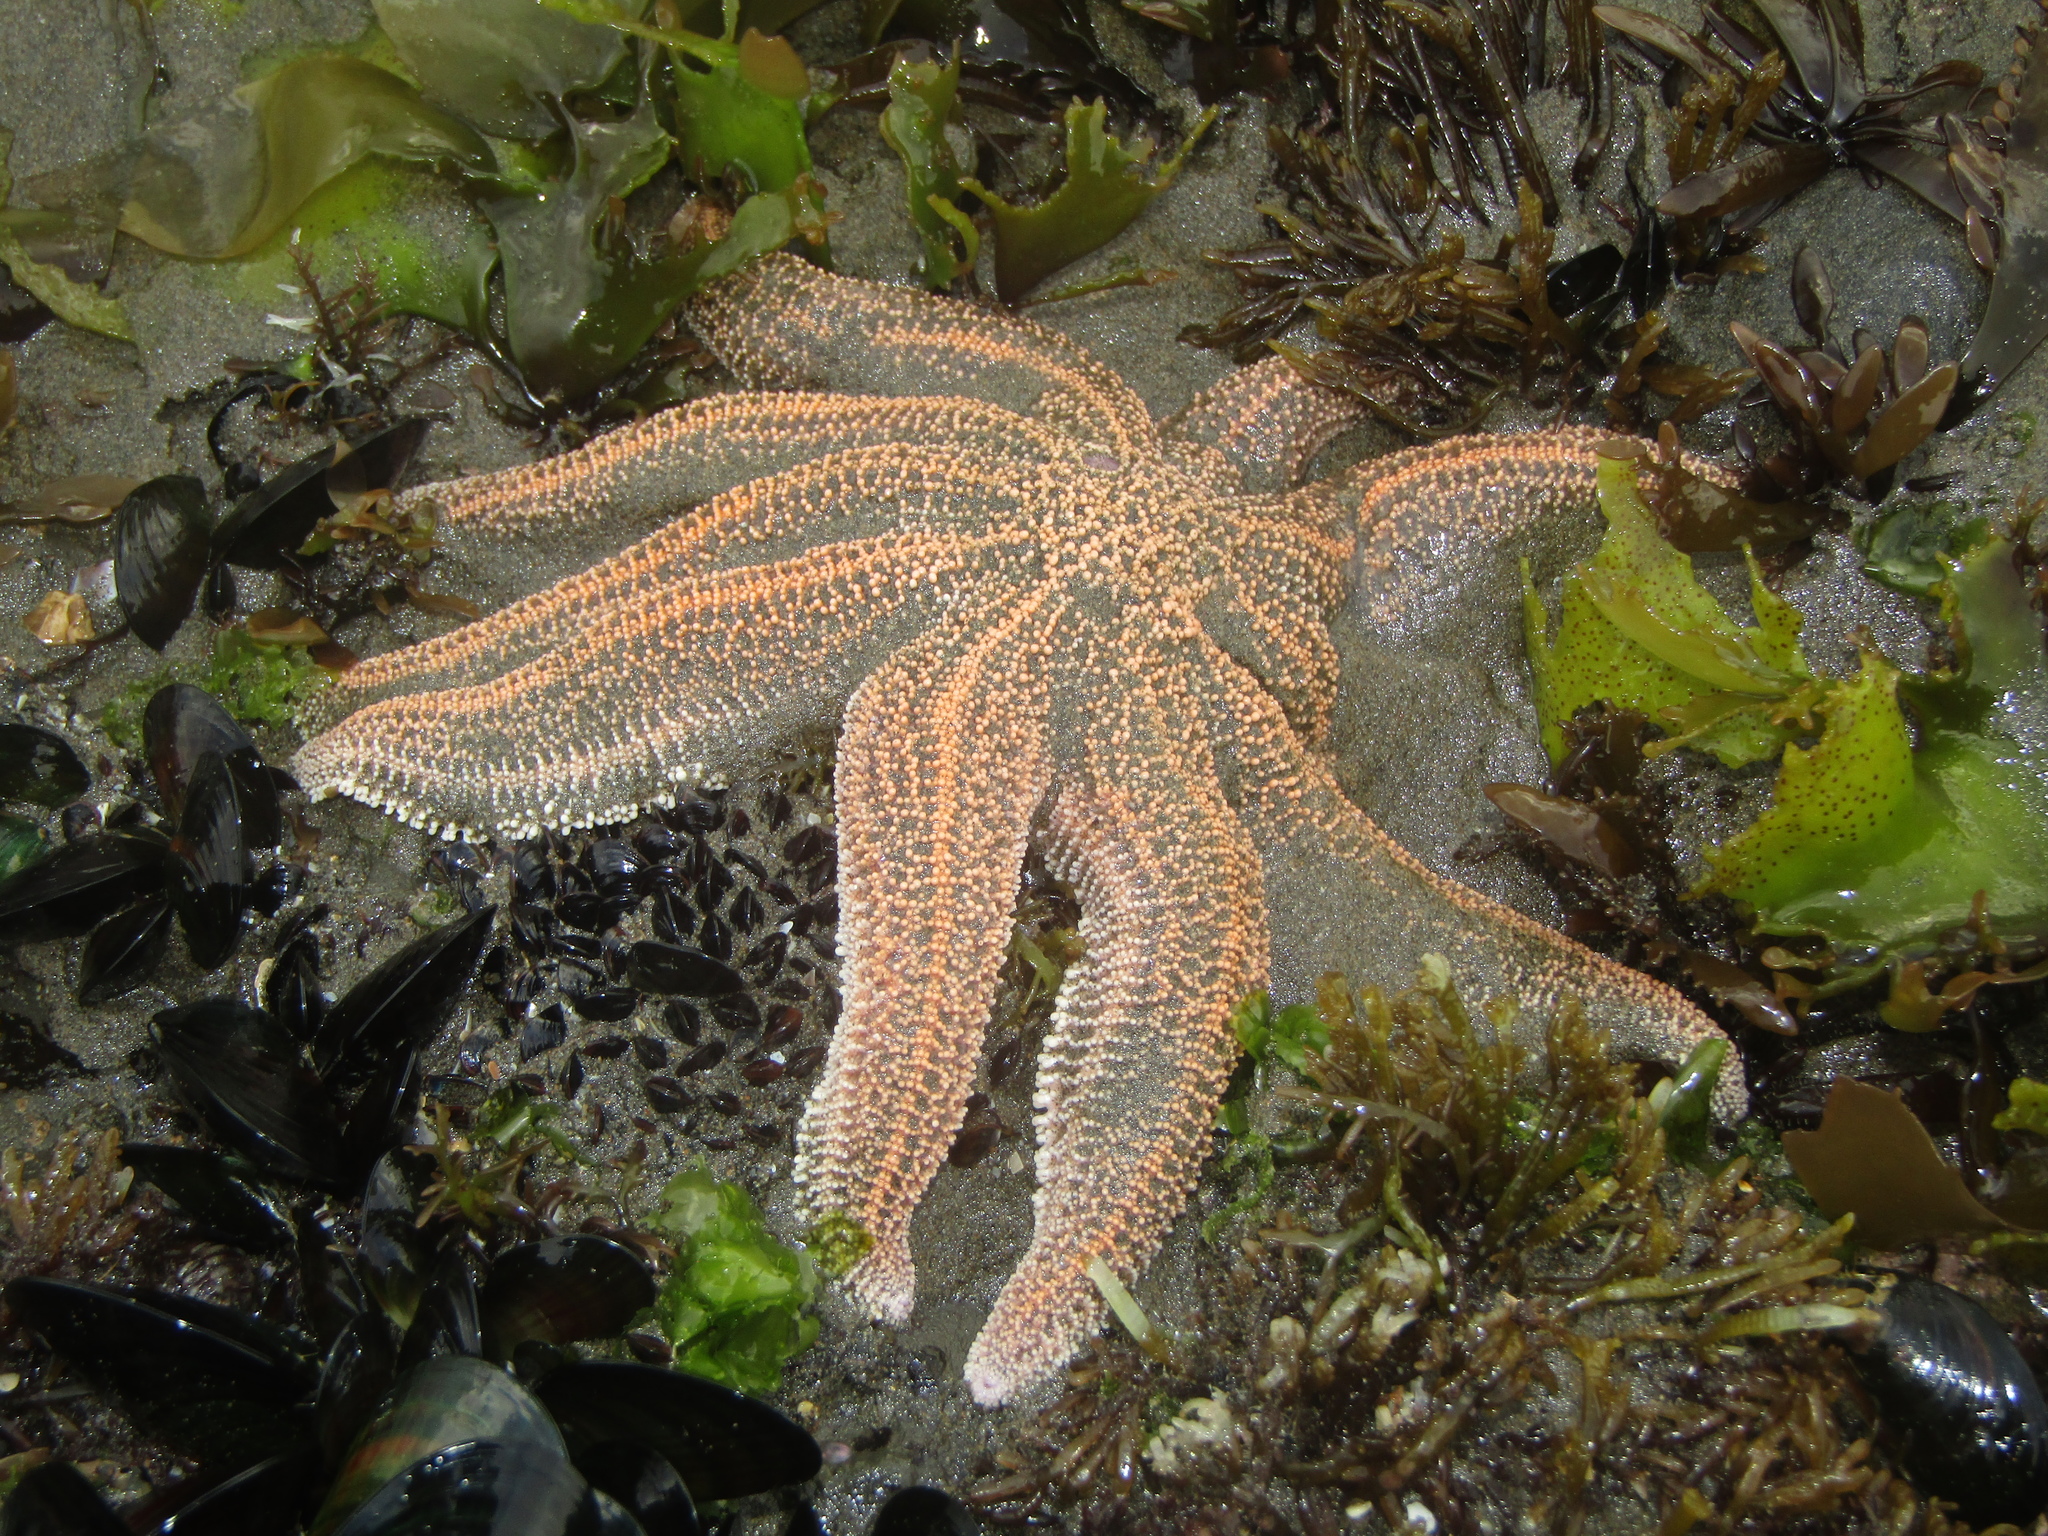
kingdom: Animalia
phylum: Echinodermata
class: Asteroidea
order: Forcipulatida
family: Stichasteridae
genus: Stichaster
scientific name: Stichaster australis
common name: Reef starfish
